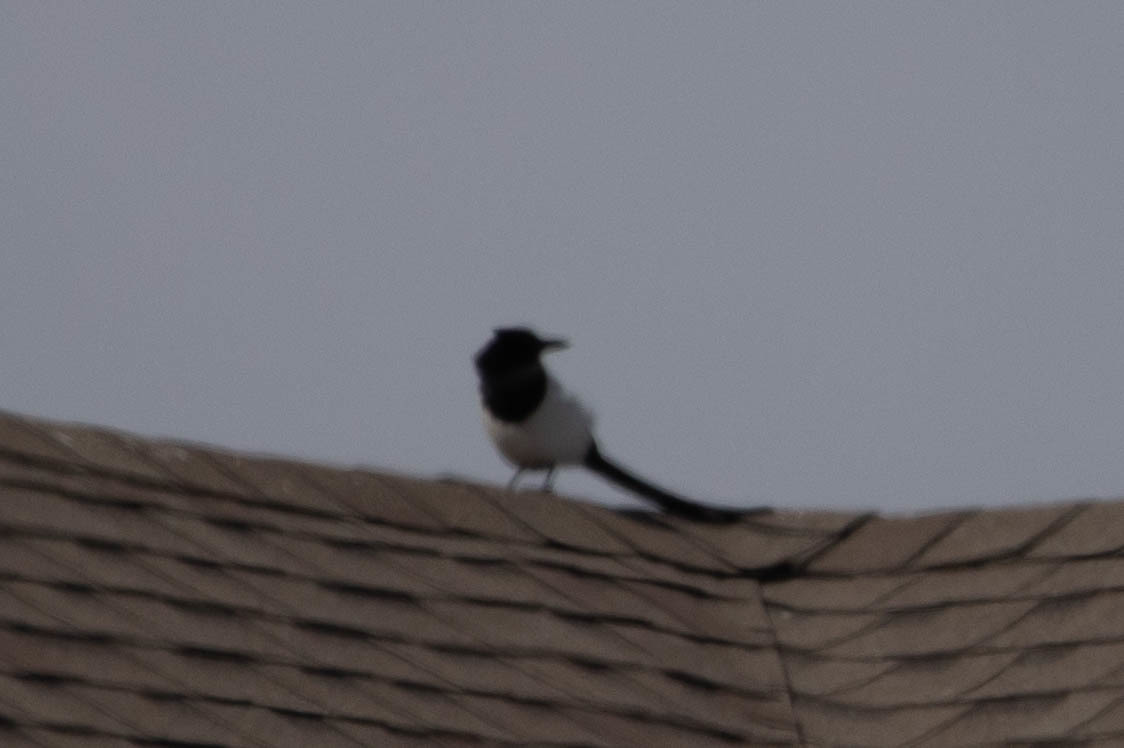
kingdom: Animalia
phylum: Chordata
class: Aves
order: Passeriformes
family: Corvidae
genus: Pica
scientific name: Pica hudsonia
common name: Black-billed magpie
